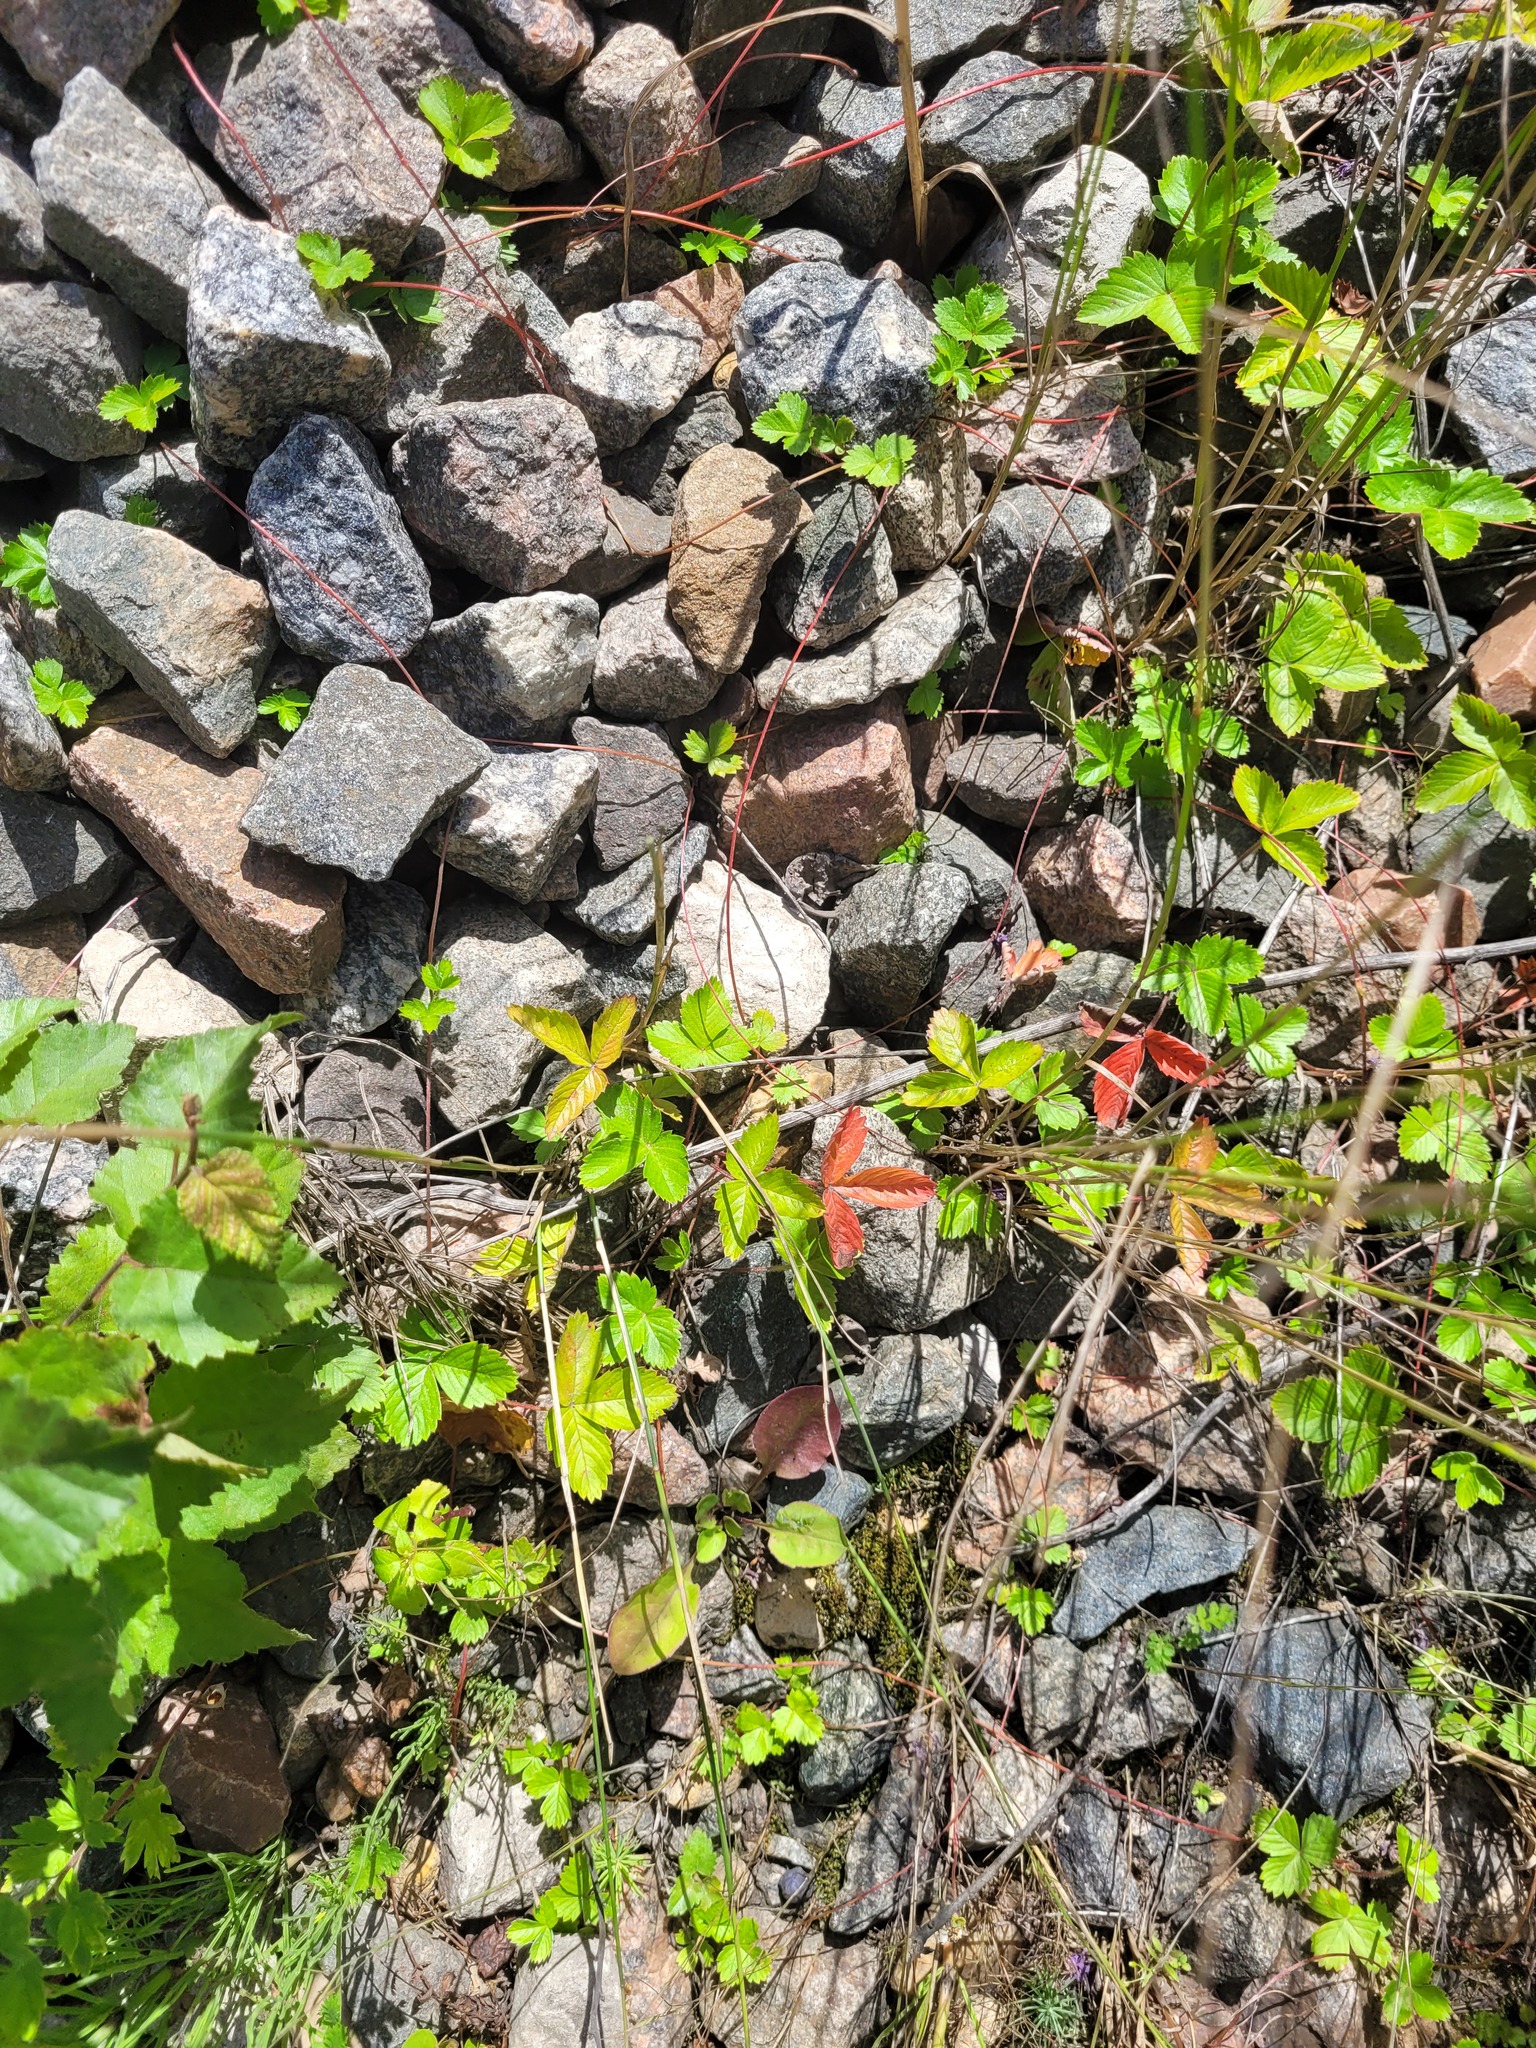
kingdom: Plantae
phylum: Tracheophyta
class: Magnoliopsida
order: Rosales
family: Rosaceae
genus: Fragaria
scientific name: Fragaria vesca
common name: Wild strawberry
